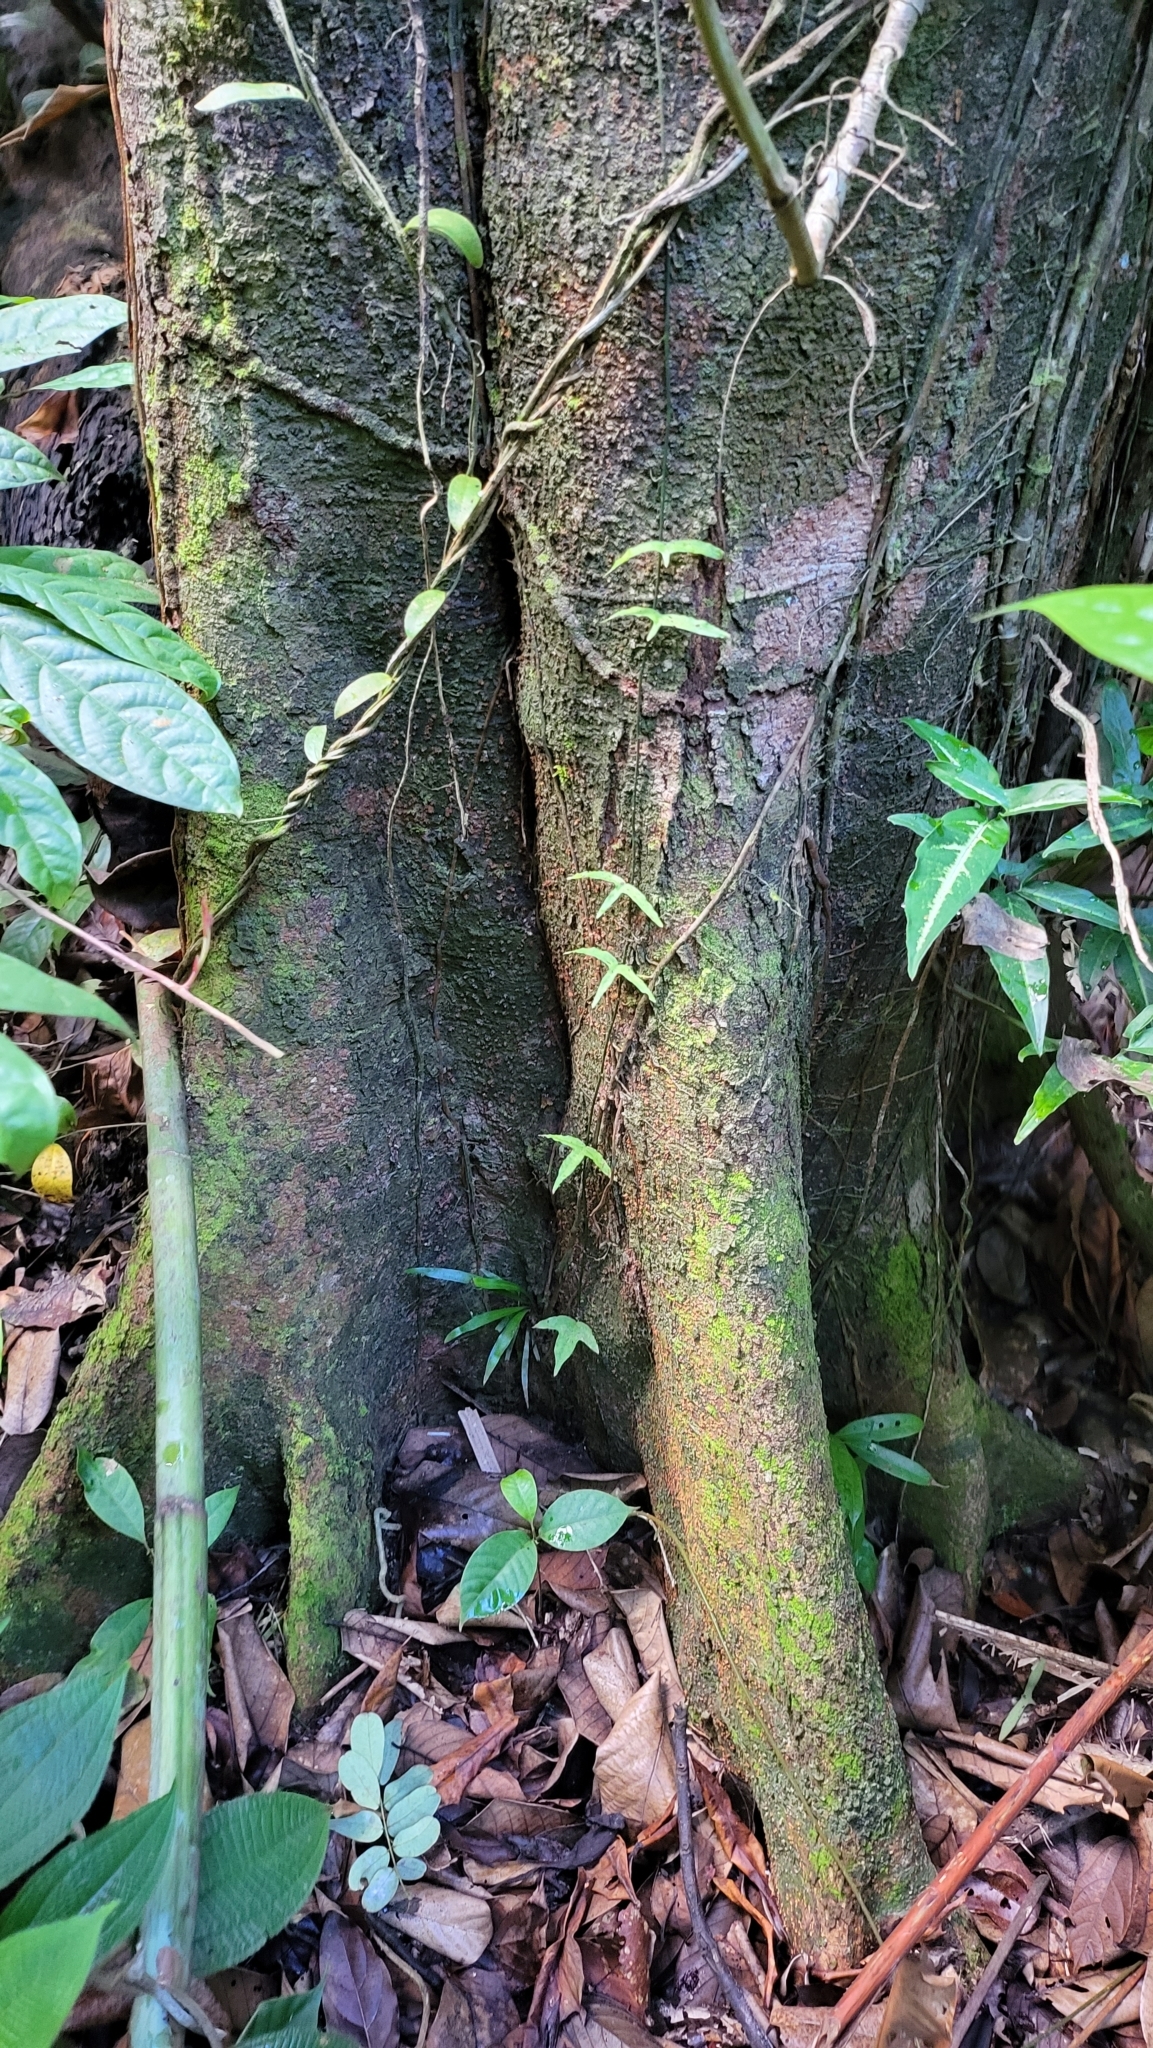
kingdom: Plantae
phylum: Tracheophyta
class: Magnoliopsida
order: Malpighiales
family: Passifloraceae
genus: Adenia
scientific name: Adenia cordifolia
